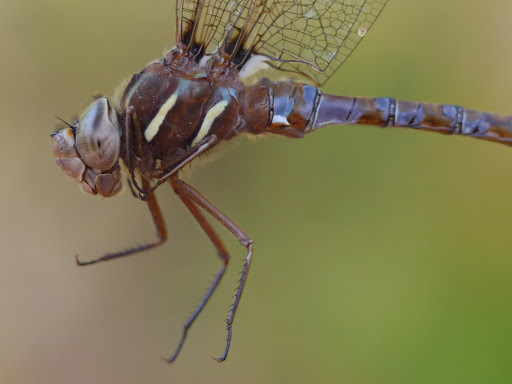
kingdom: Animalia
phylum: Arthropoda
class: Insecta
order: Odonata
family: Aeshnidae
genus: Basiaeschna
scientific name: Basiaeschna janata
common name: Springtime darner
